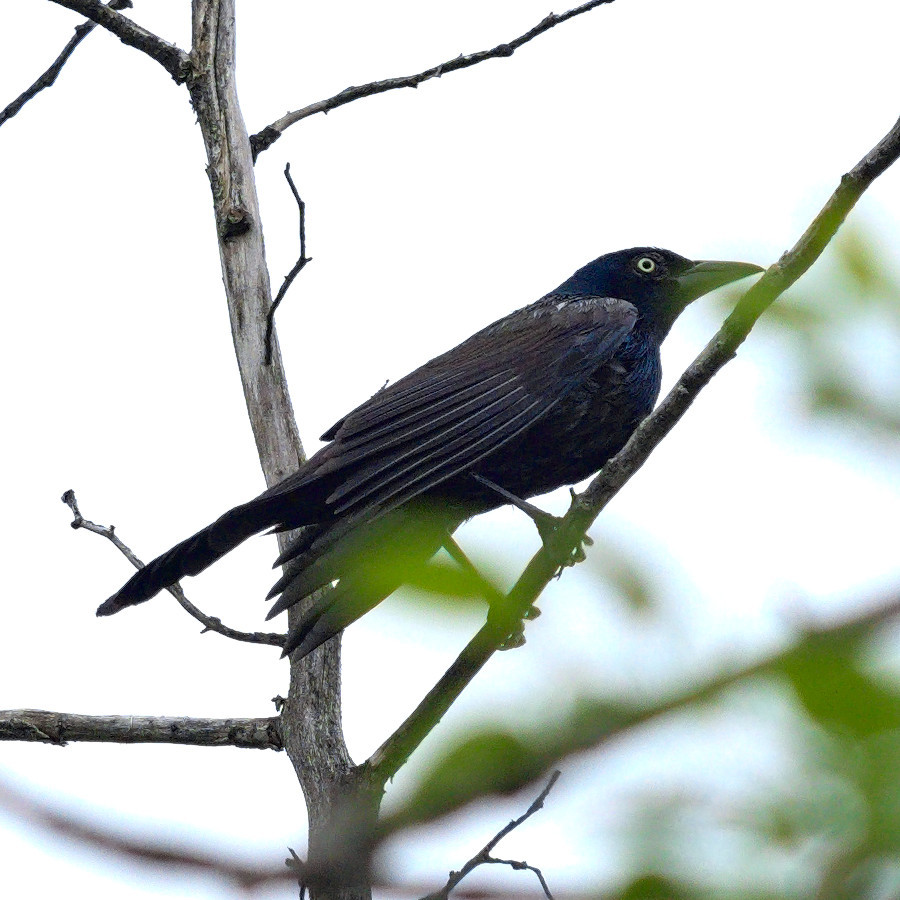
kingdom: Animalia
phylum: Chordata
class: Aves
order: Passeriformes
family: Icteridae
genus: Quiscalus
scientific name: Quiscalus quiscula
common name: Common grackle
